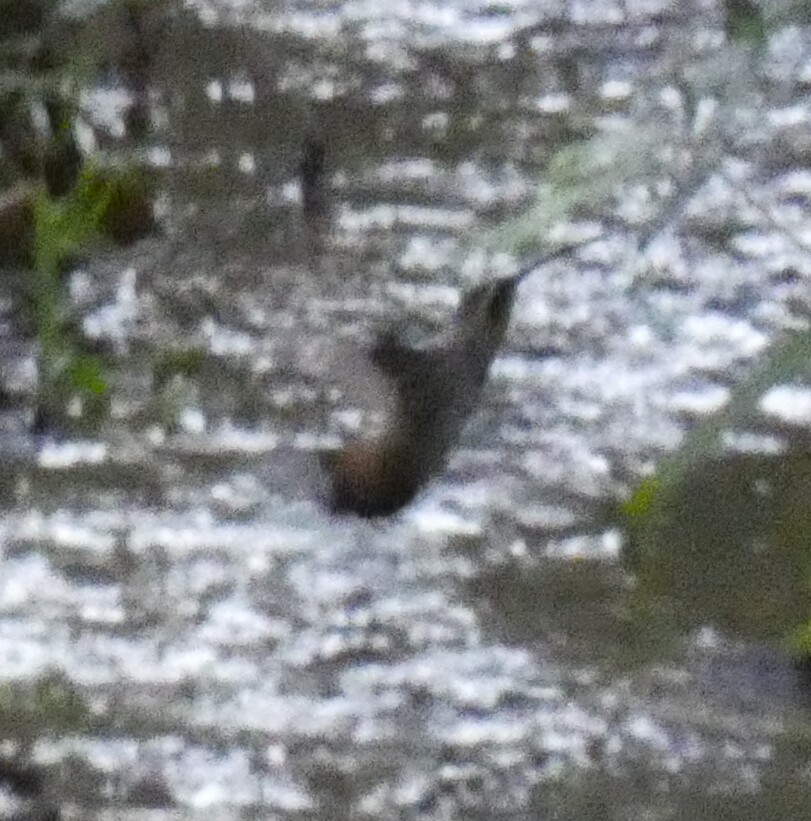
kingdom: Animalia
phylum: Chordata
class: Aves
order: Apodiformes
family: Trochilidae
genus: Phaethornis
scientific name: Phaethornis pretrei
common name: Planalto hermit
